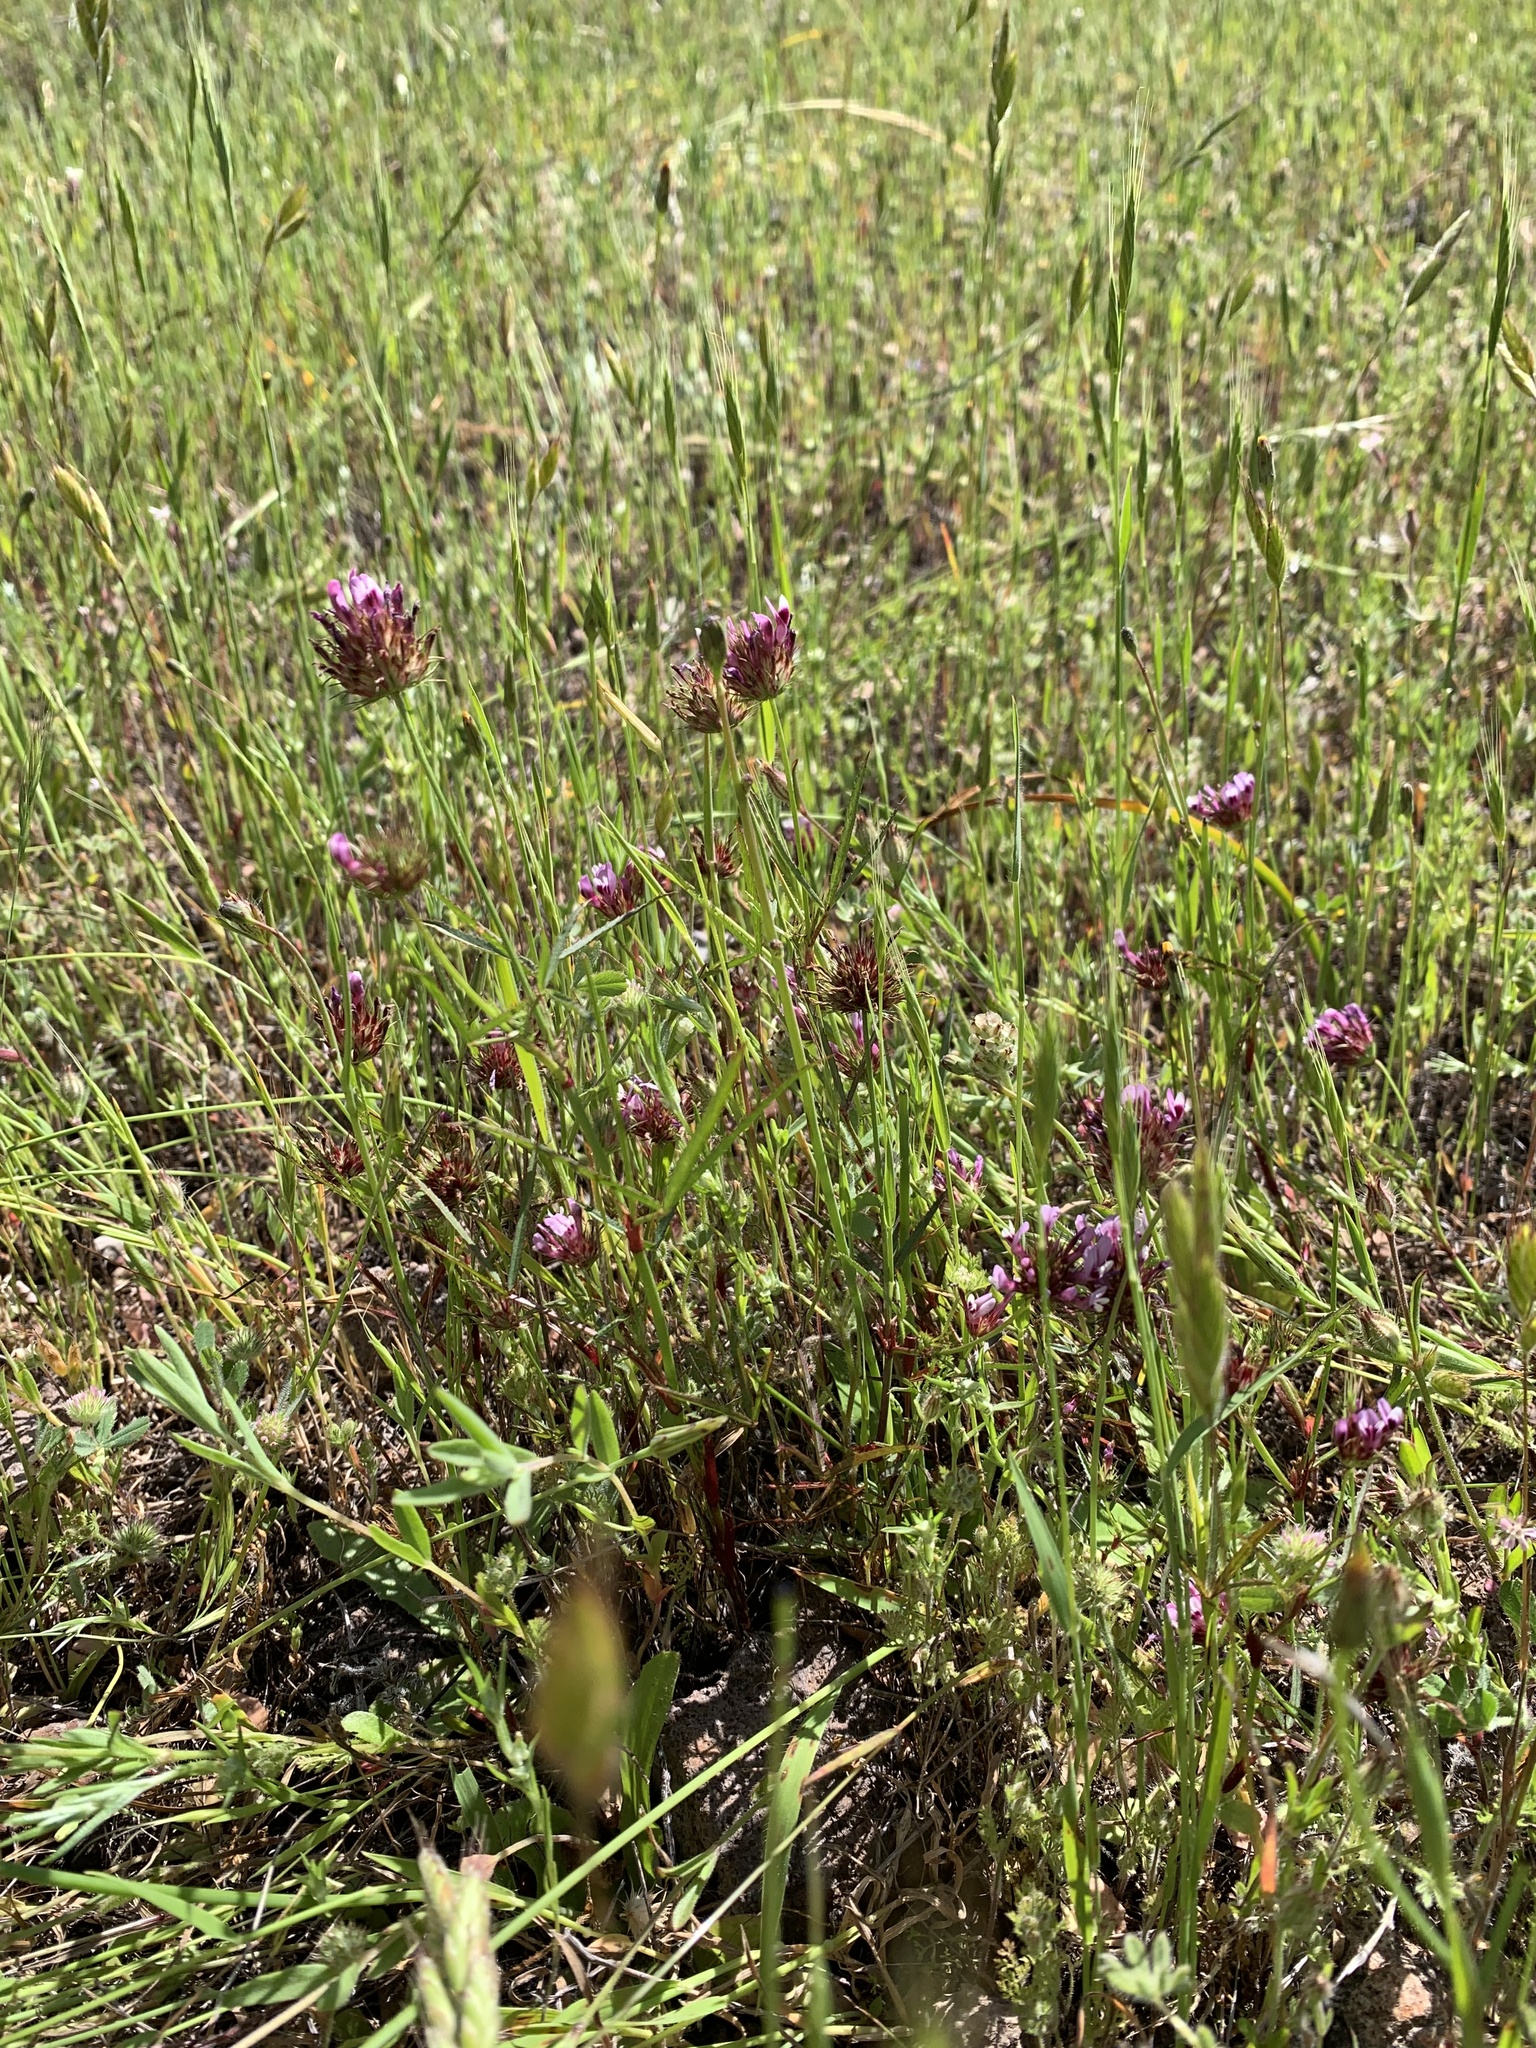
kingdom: Plantae
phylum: Tracheophyta
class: Magnoliopsida
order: Fabales
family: Fabaceae
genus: Trifolium
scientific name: Trifolium willdenovii
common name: Tomcat clover
